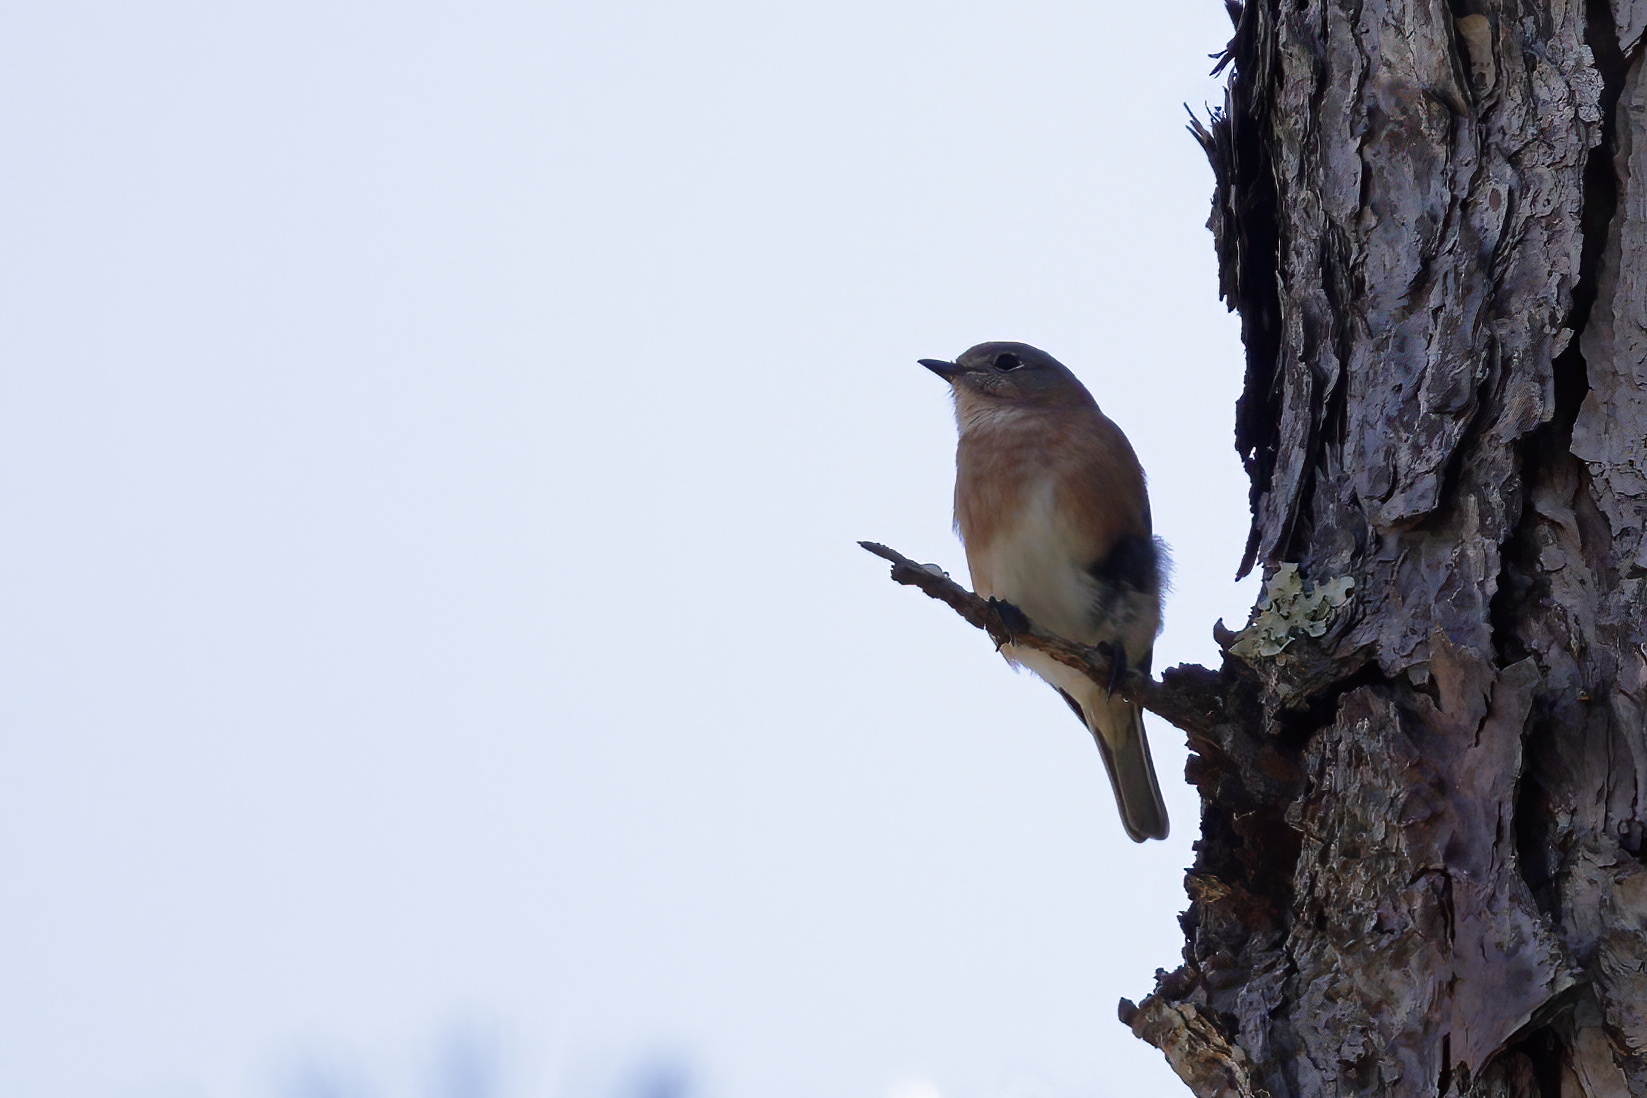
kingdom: Animalia
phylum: Chordata
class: Aves
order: Passeriformes
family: Turdidae
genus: Sialia
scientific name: Sialia sialis
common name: Eastern bluebird
